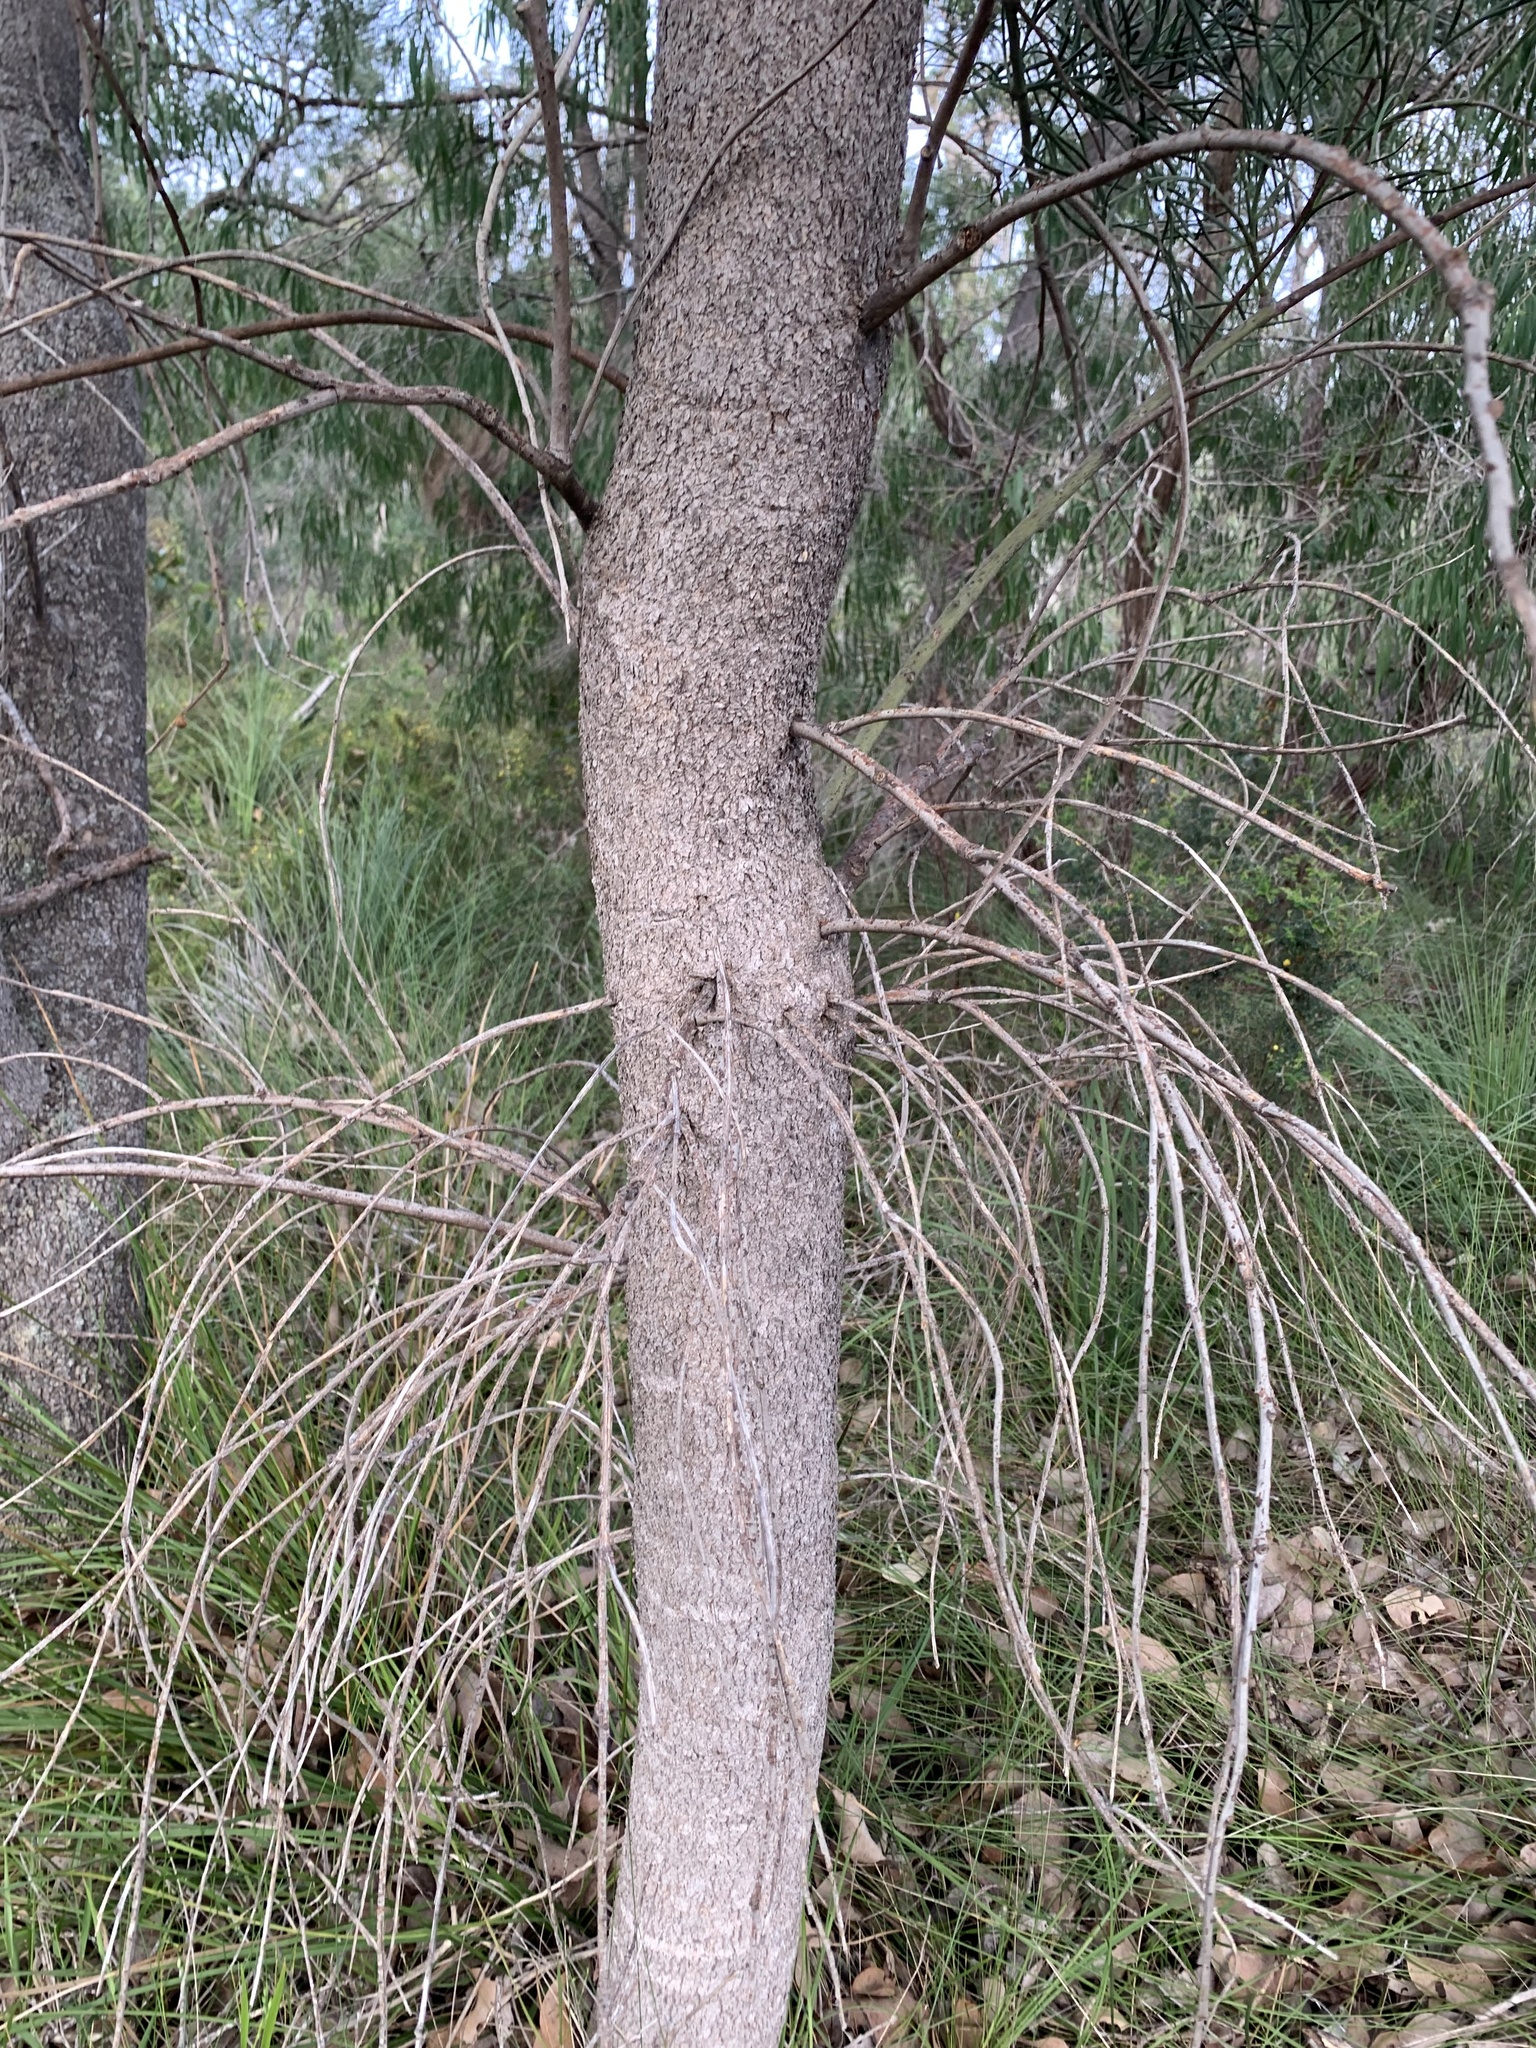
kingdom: Plantae
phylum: Tracheophyta
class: Magnoliopsida
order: Santalales
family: Loranthaceae
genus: Nuytsia
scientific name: Nuytsia floribunda
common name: Western australian christmastree
